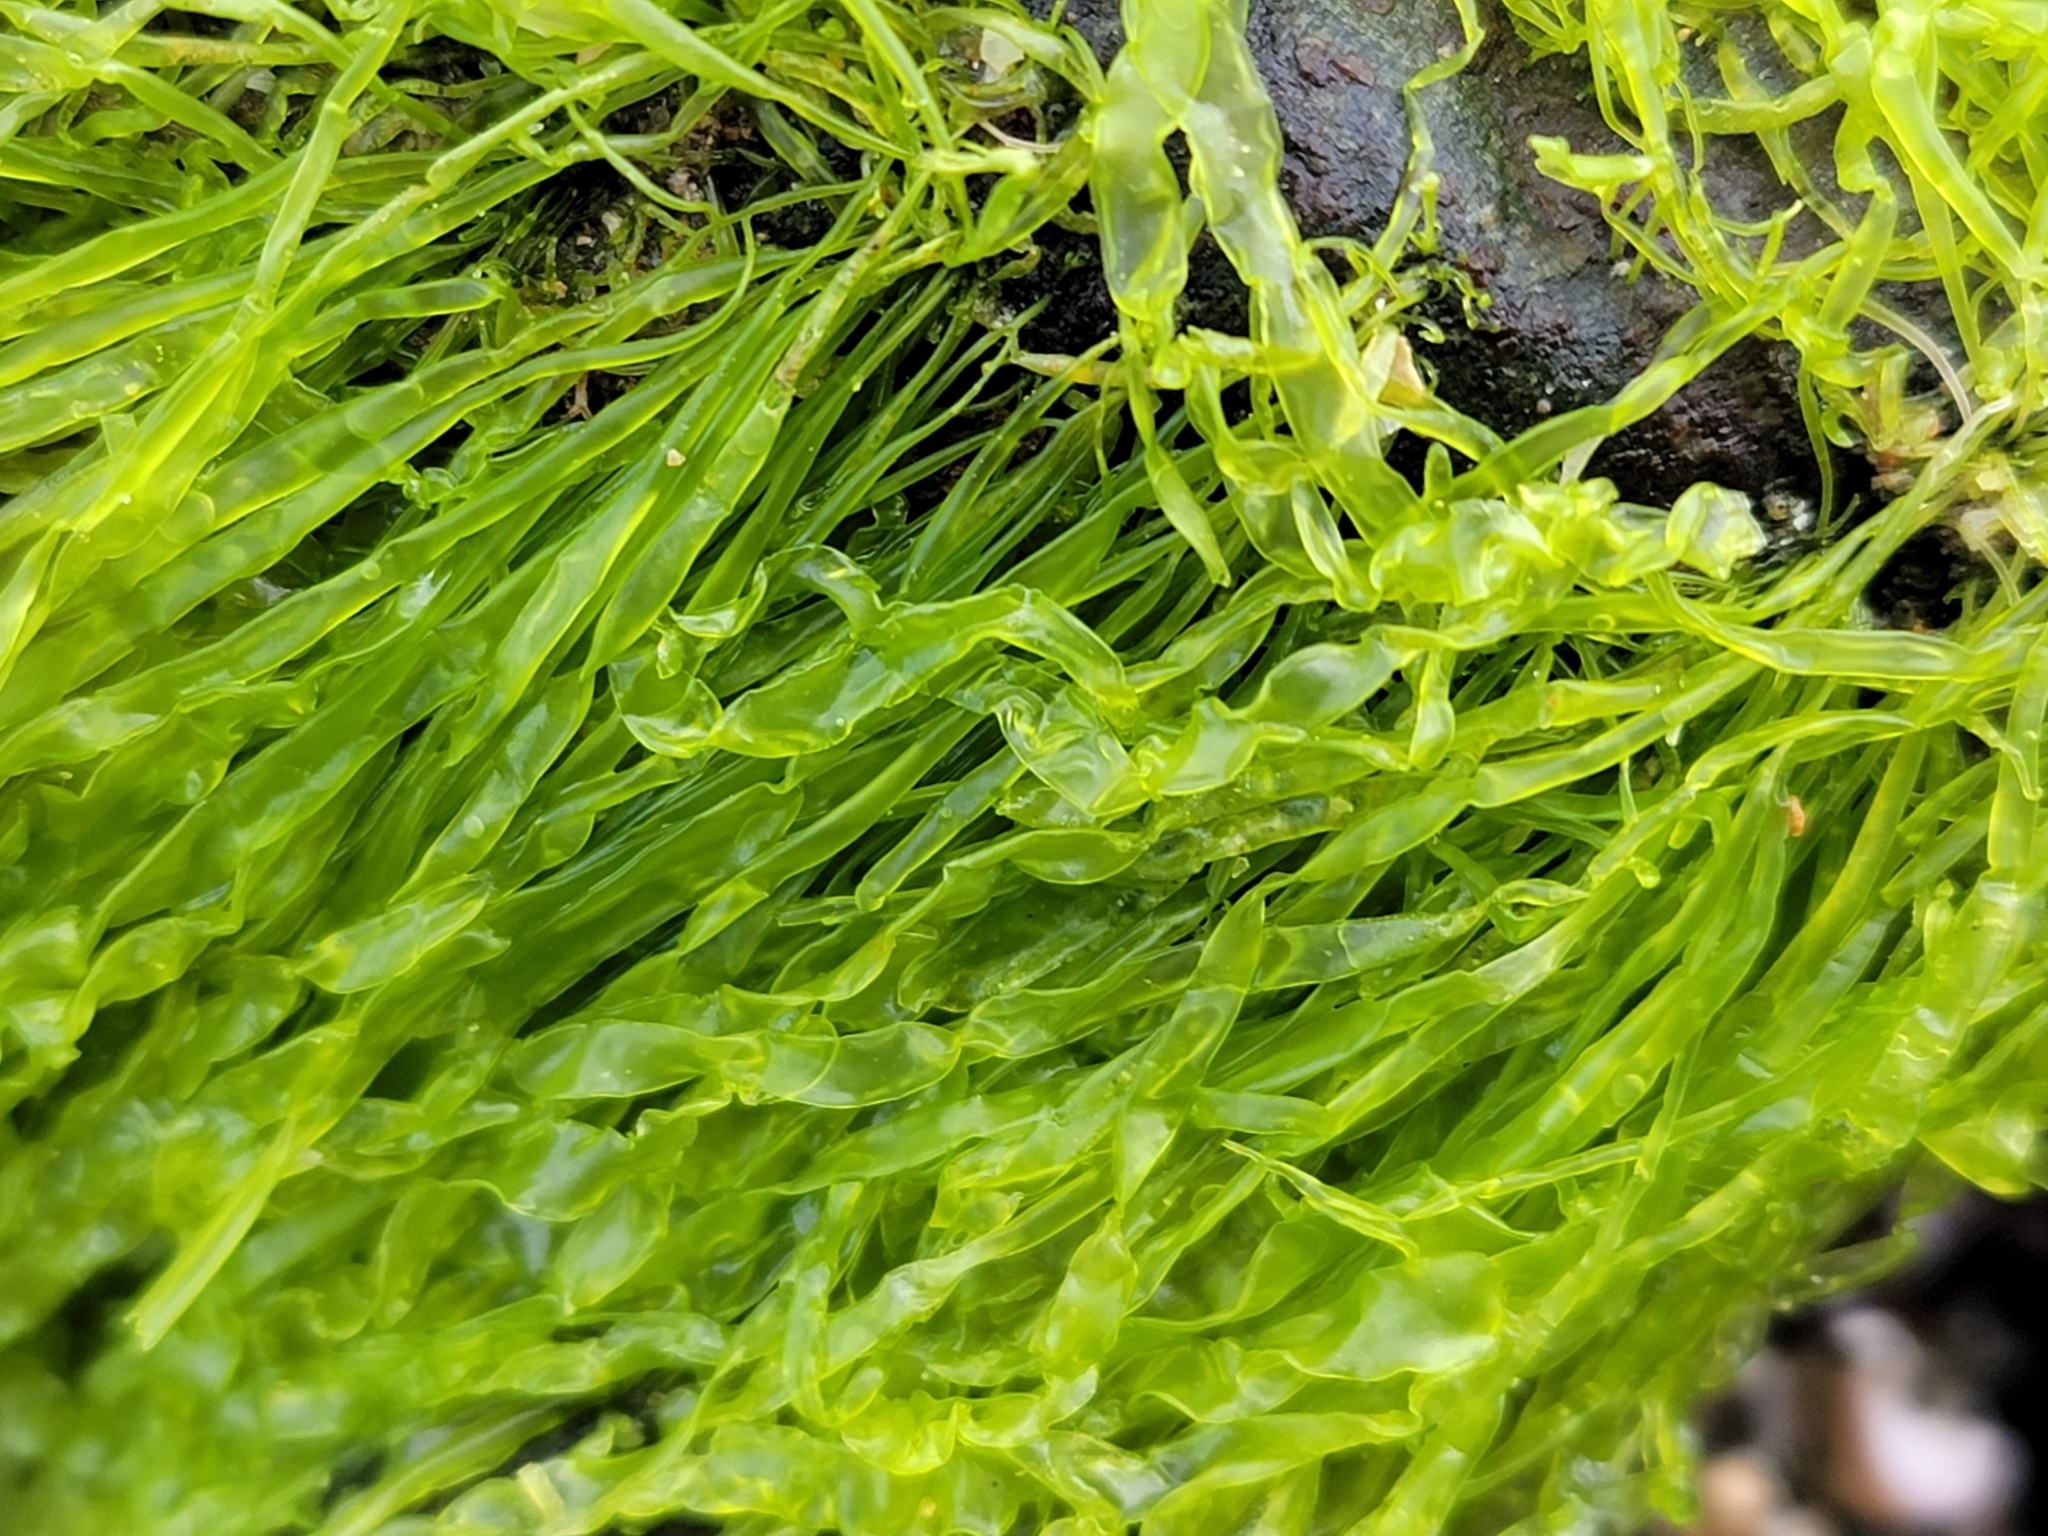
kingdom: Plantae
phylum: Chlorophyta
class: Ulvophyceae
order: Ulvales
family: Ulvaceae
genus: Ulva
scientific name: Ulva intestinalis
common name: Gut weed
